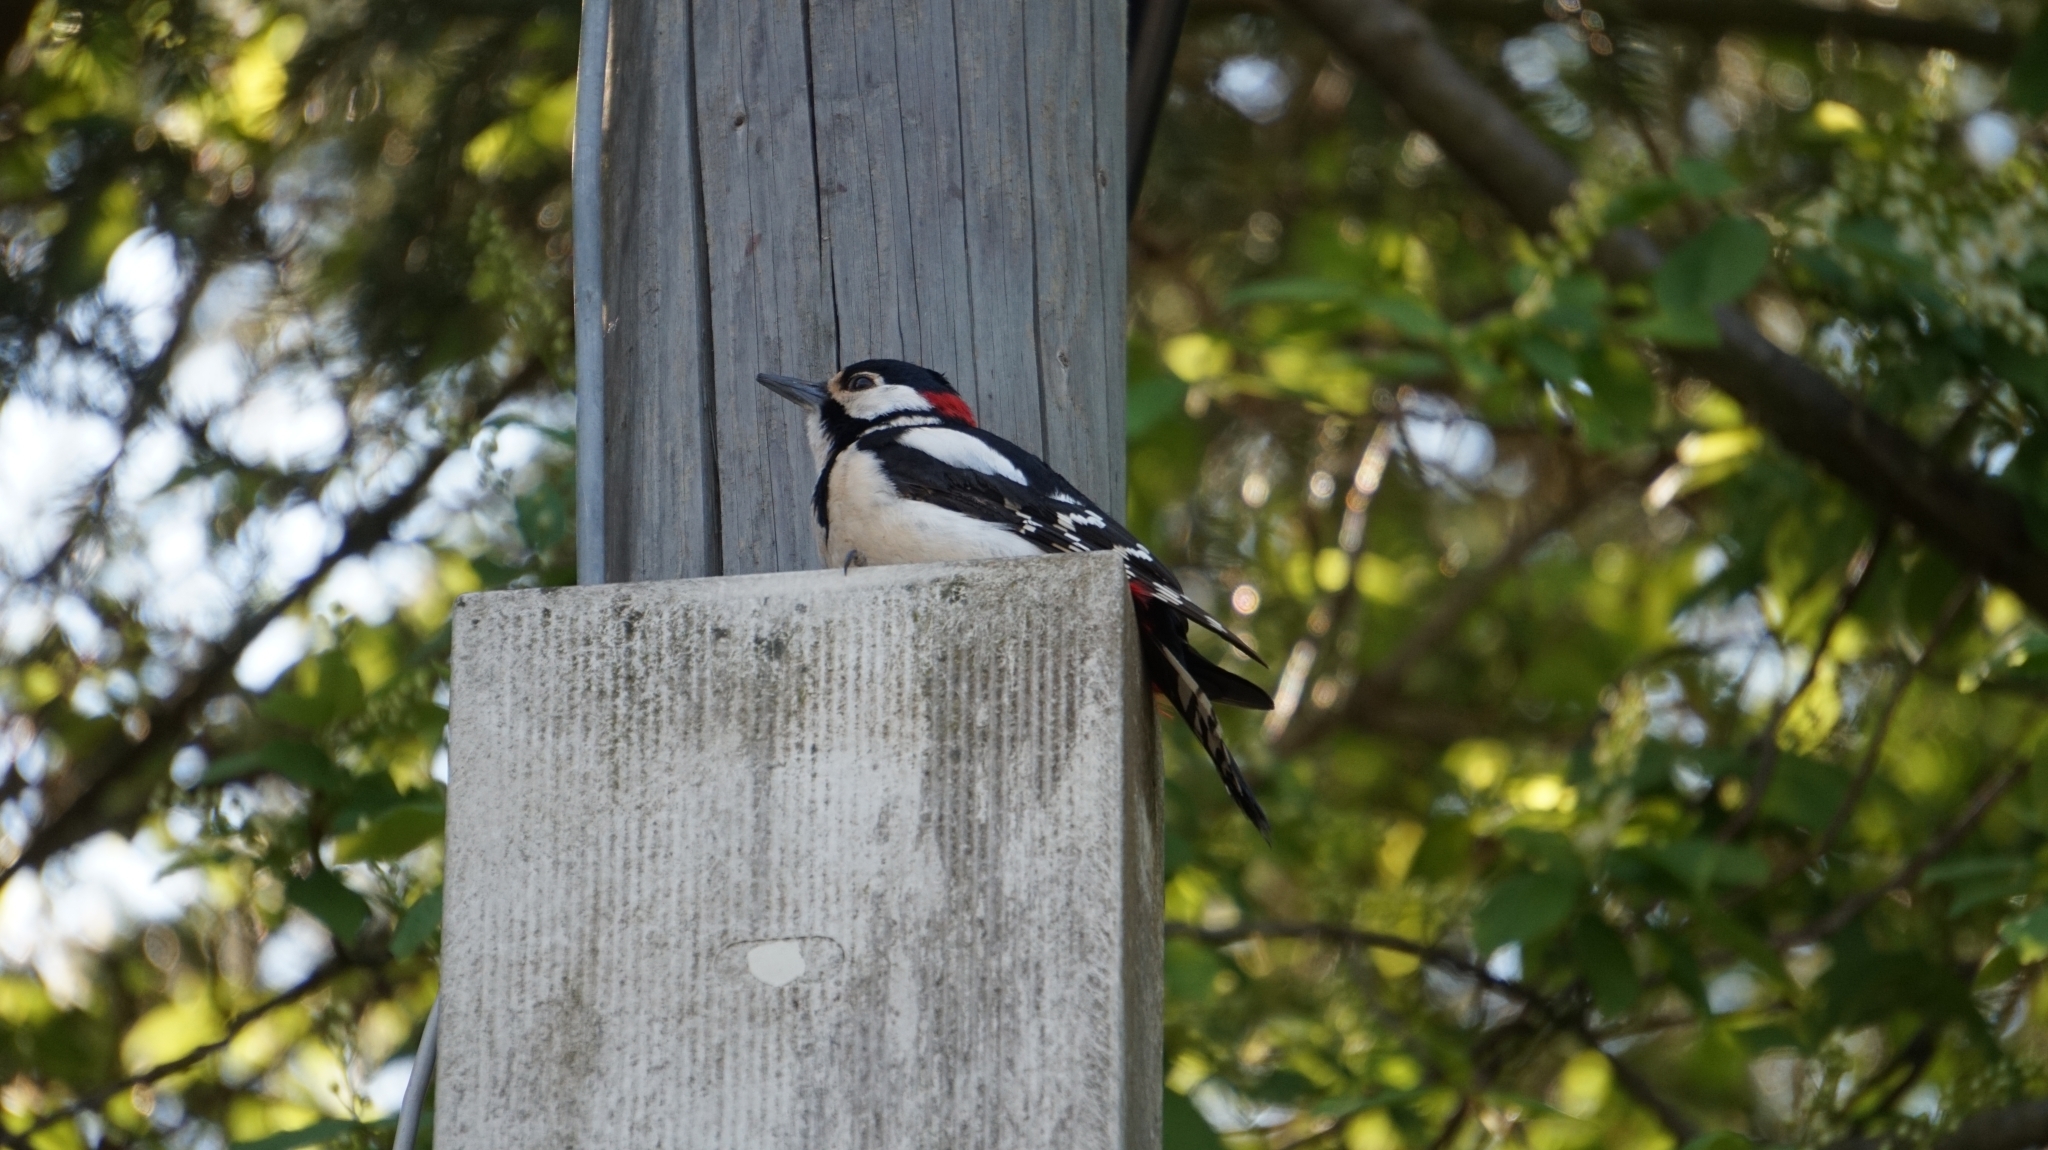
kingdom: Animalia
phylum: Chordata
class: Aves
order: Piciformes
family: Picidae
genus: Dendrocopos
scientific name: Dendrocopos major
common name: Great spotted woodpecker
